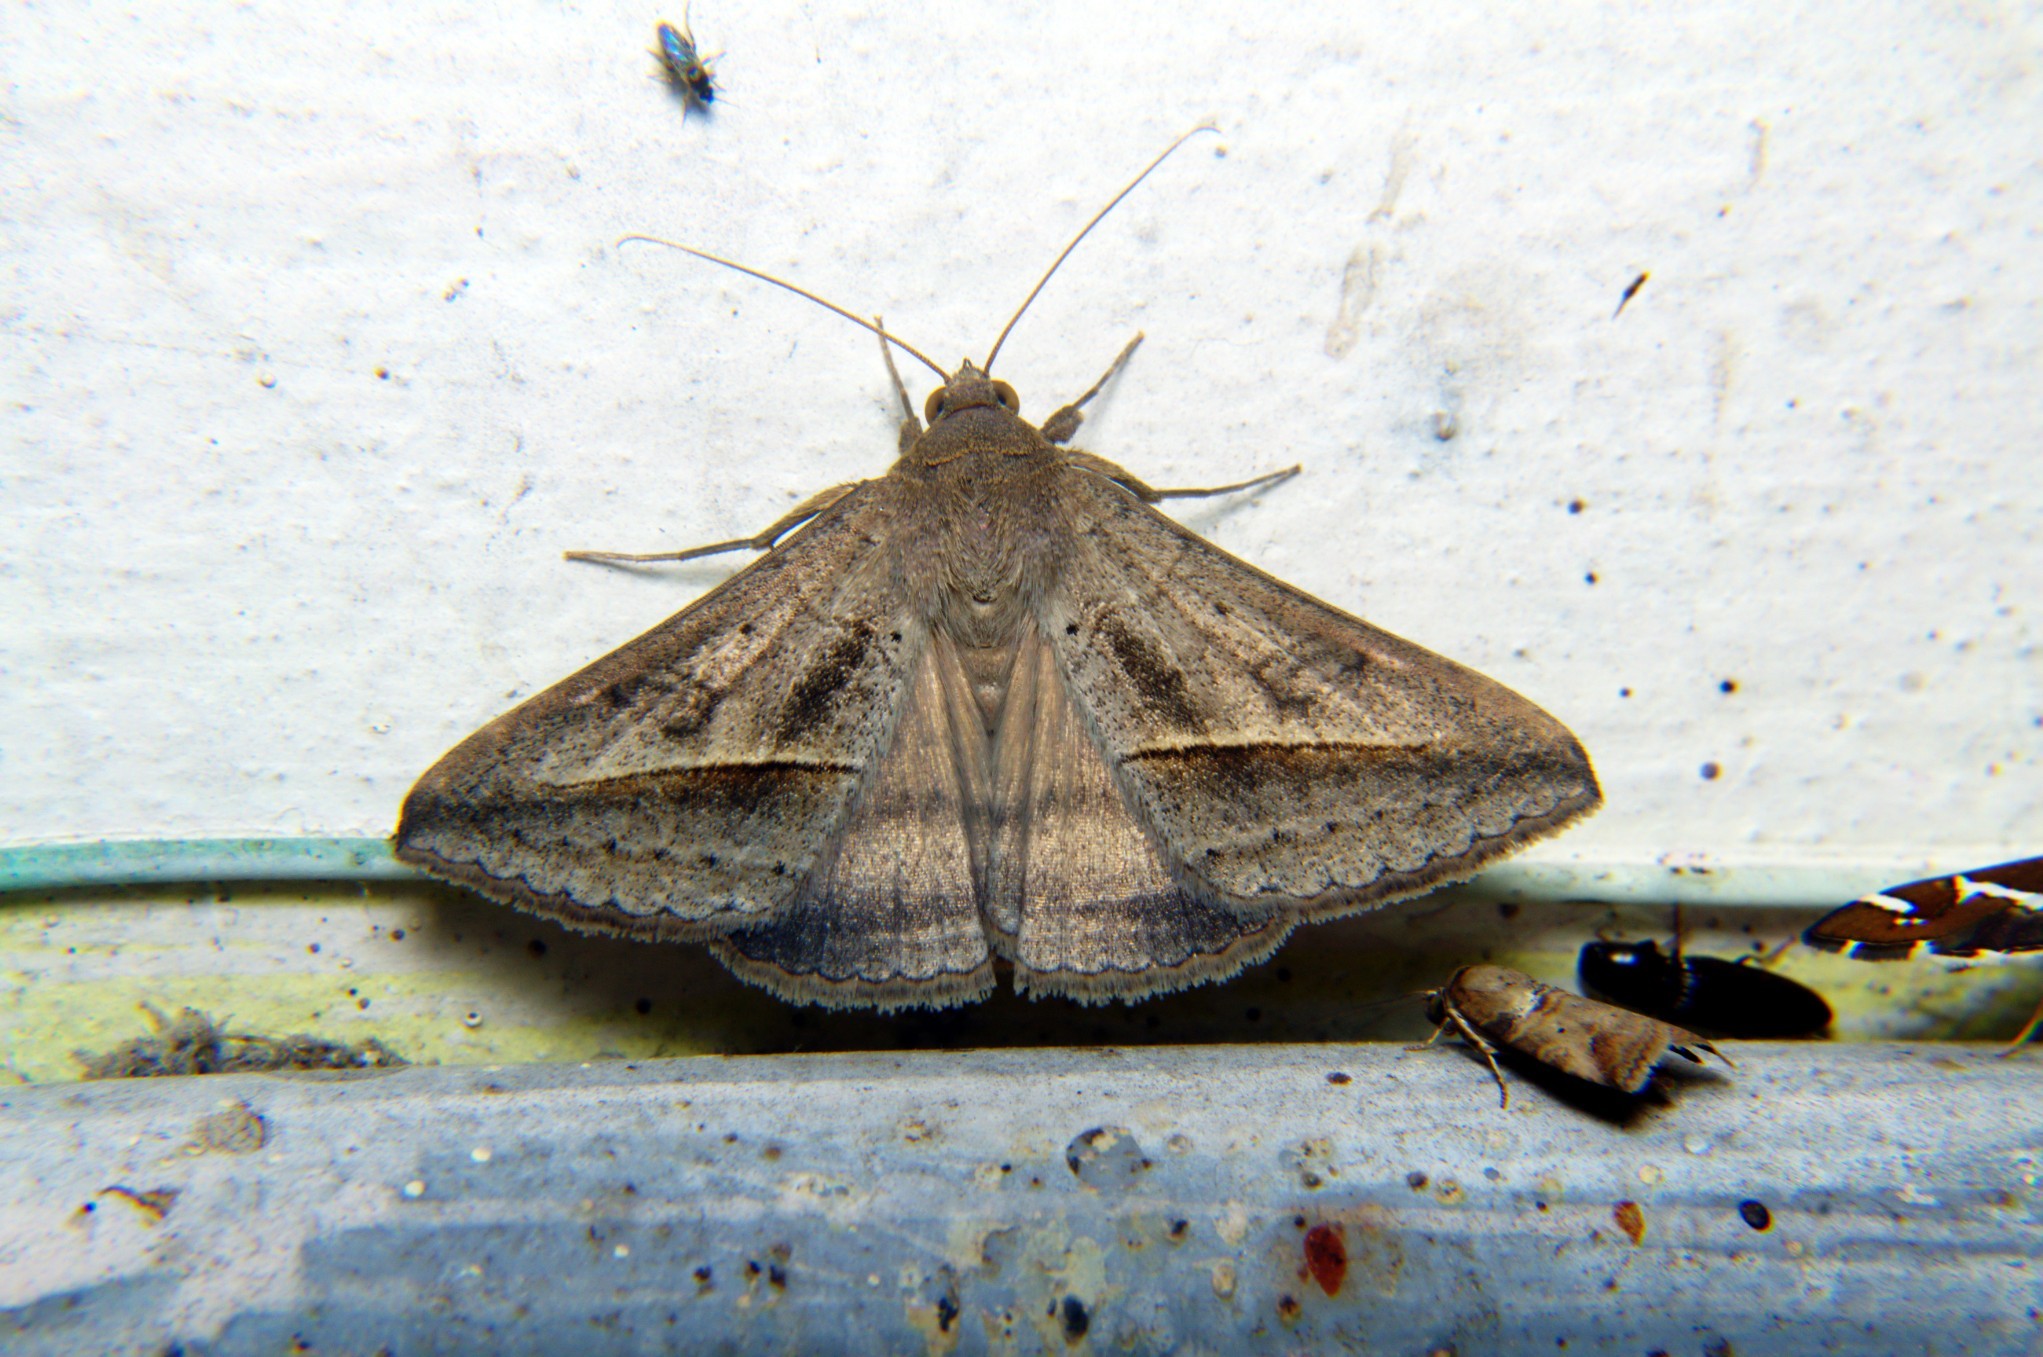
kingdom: Animalia
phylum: Arthropoda
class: Insecta
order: Lepidoptera
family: Erebidae
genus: Mocis
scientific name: Mocis frugalis
